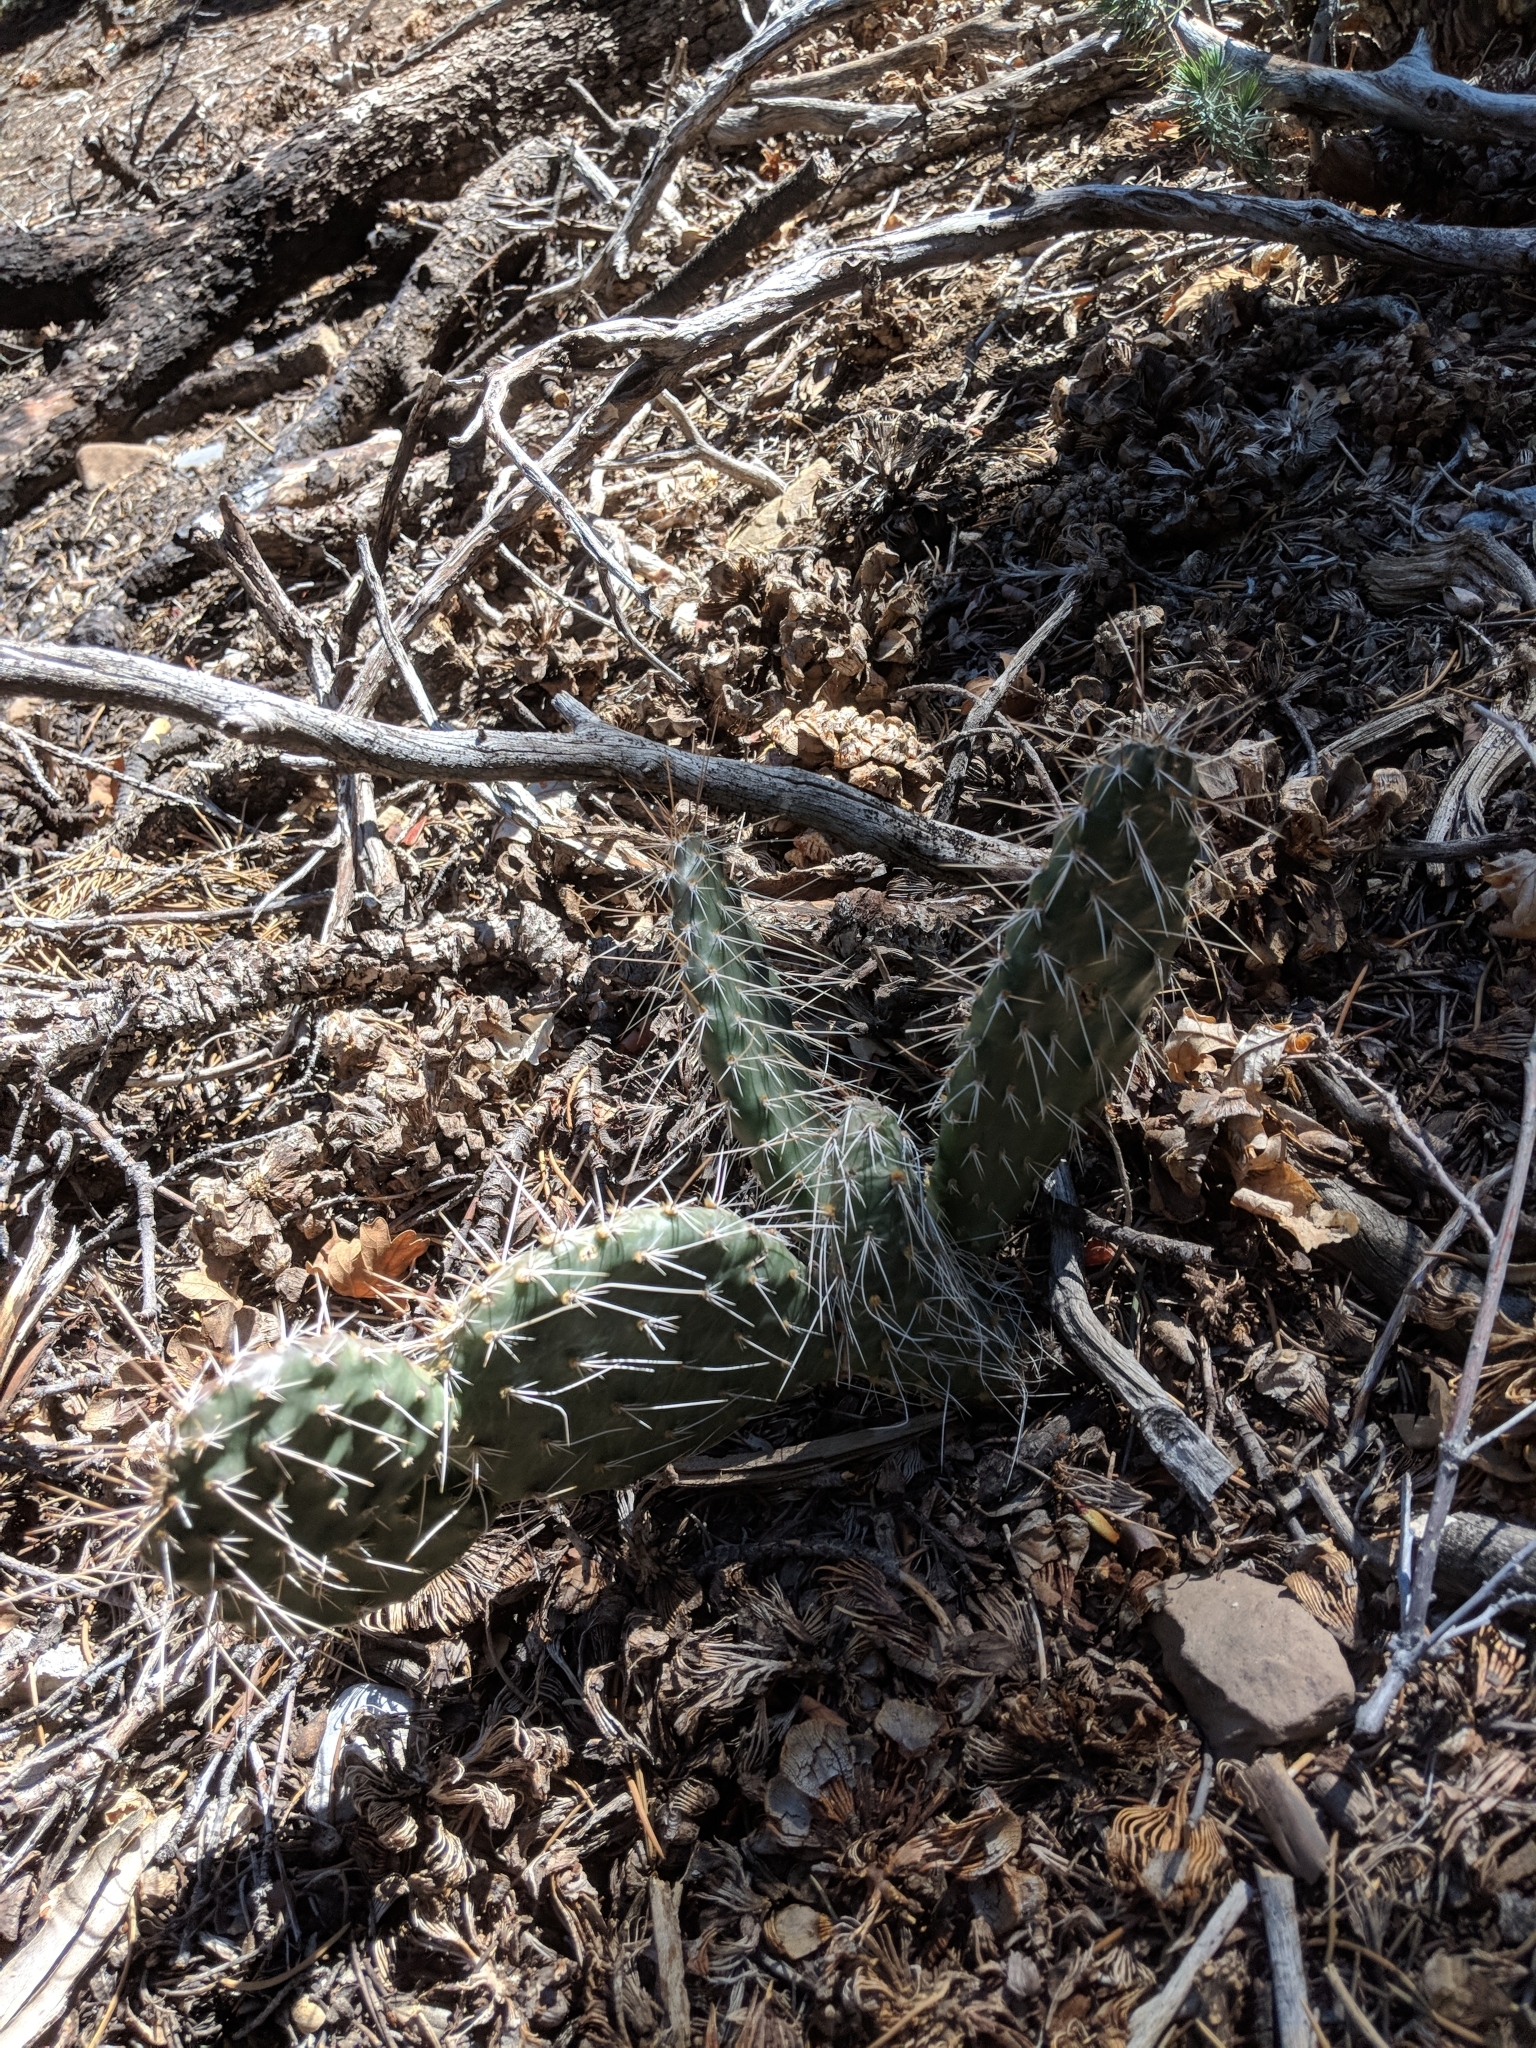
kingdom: Plantae
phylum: Tracheophyta
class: Magnoliopsida
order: Caryophyllales
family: Cactaceae
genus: Opuntia
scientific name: Opuntia polyacantha
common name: Plains prickly-pear
